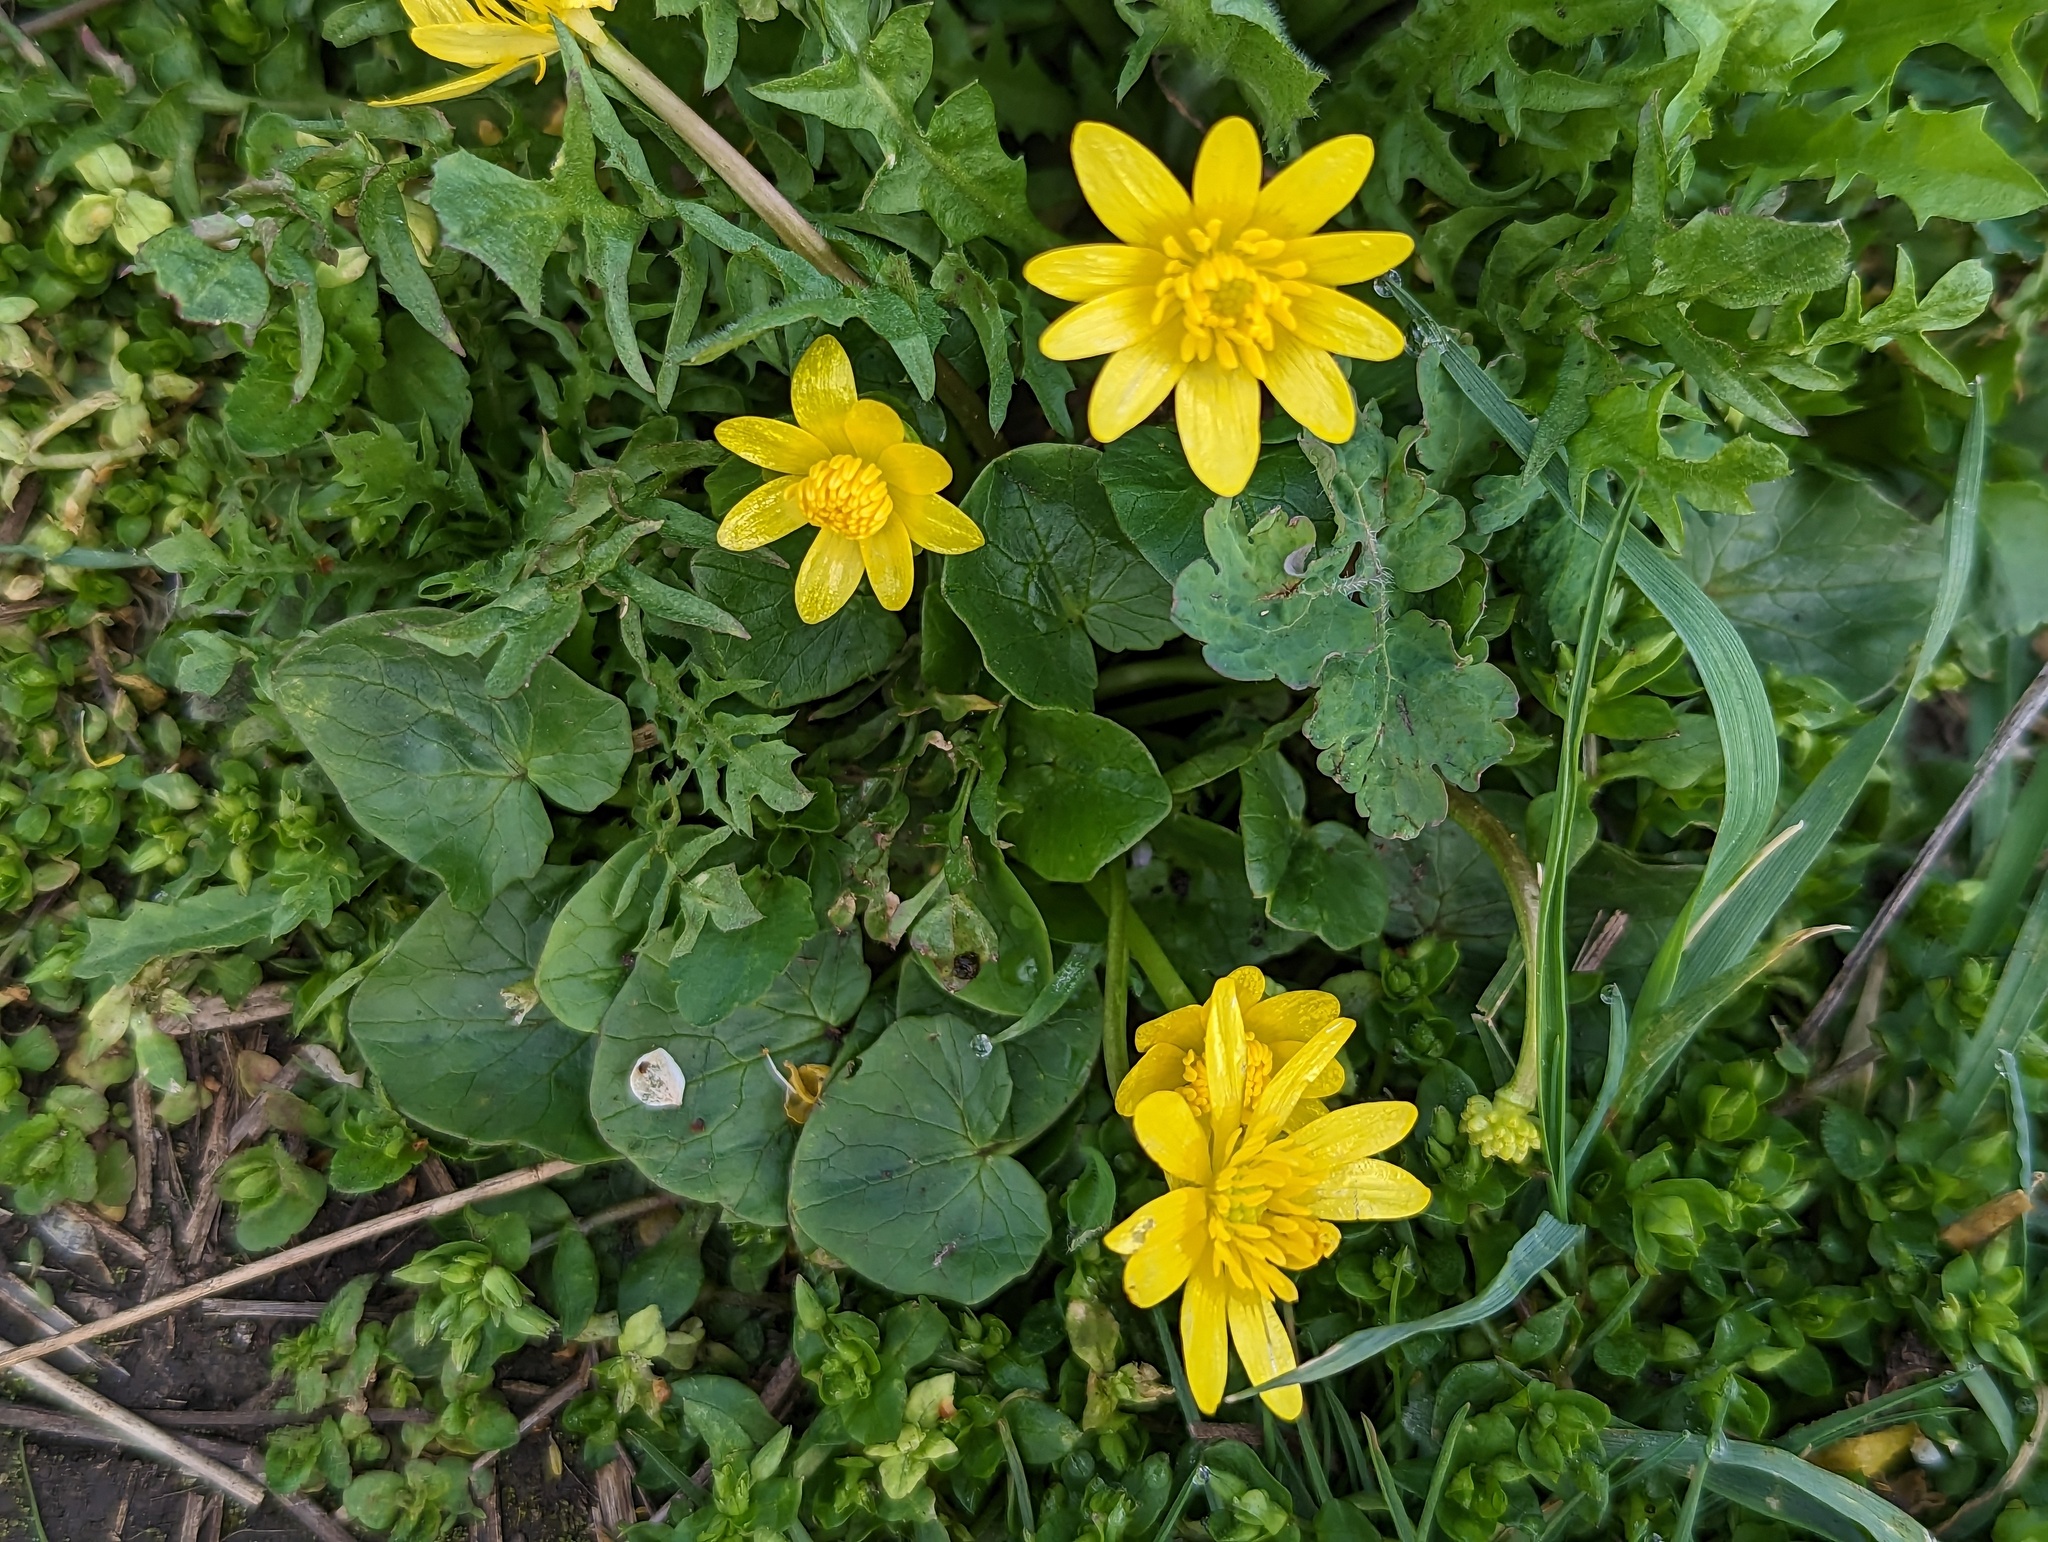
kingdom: Plantae
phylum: Tracheophyta
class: Magnoliopsida
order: Ranunculales
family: Ranunculaceae
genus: Ficaria
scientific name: Ficaria verna
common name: Lesser celandine
